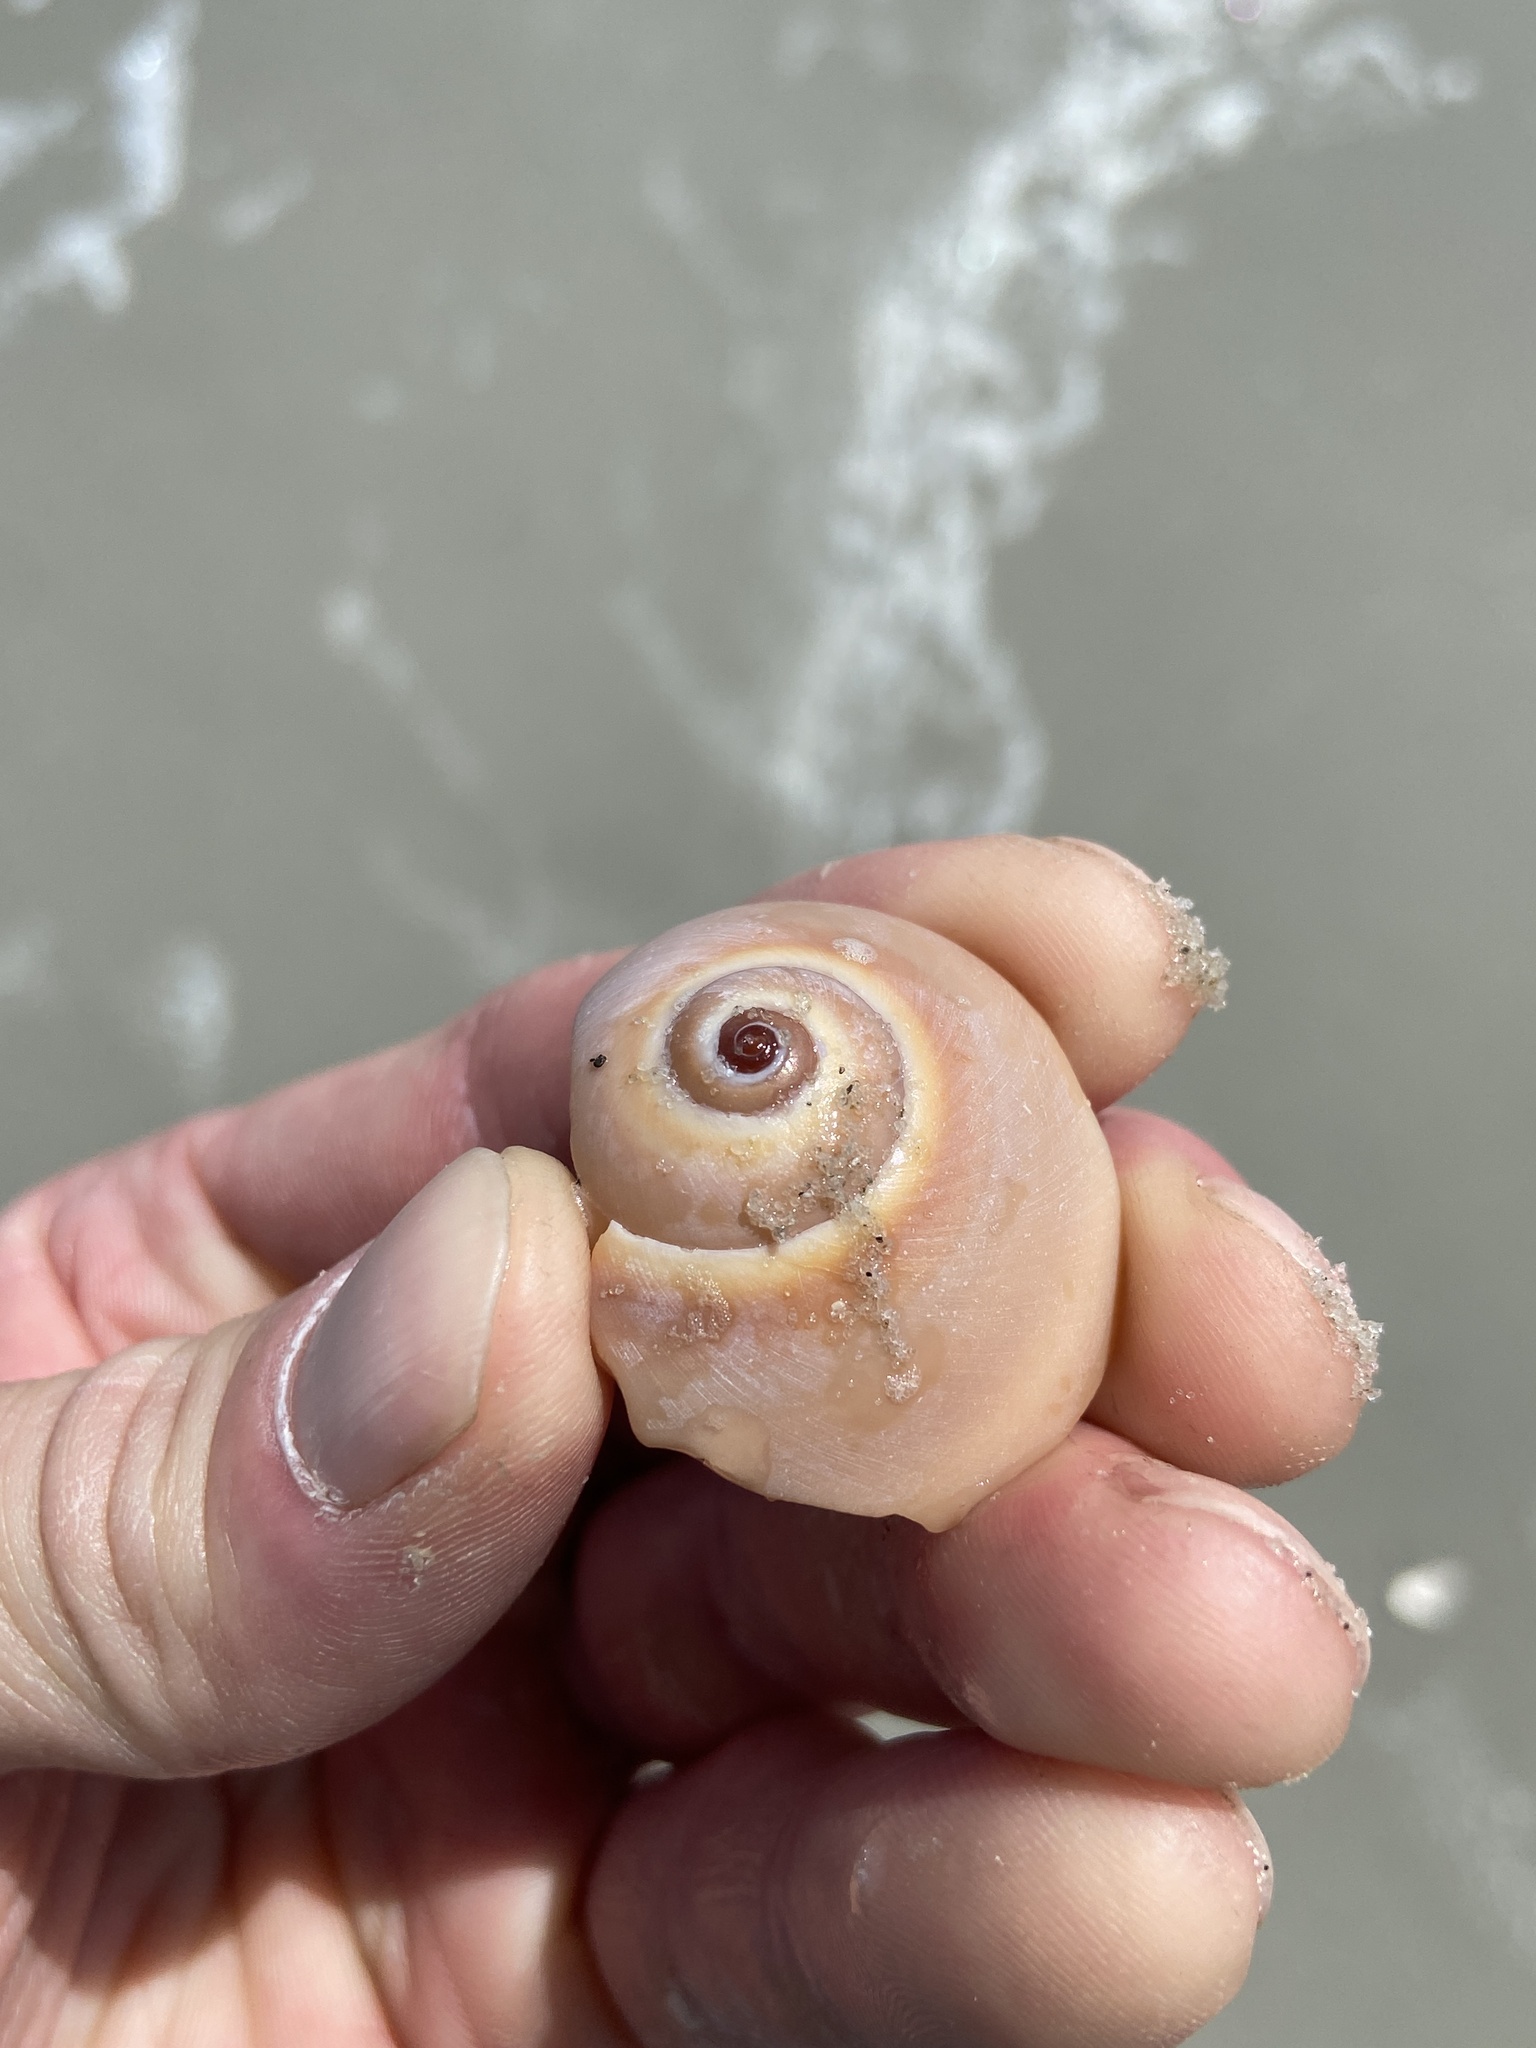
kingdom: Animalia
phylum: Mollusca
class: Gastropoda
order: Littorinimorpha
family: Naticidae
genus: Neverita
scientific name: Neverita duplicata
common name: Lobed moonsnail
